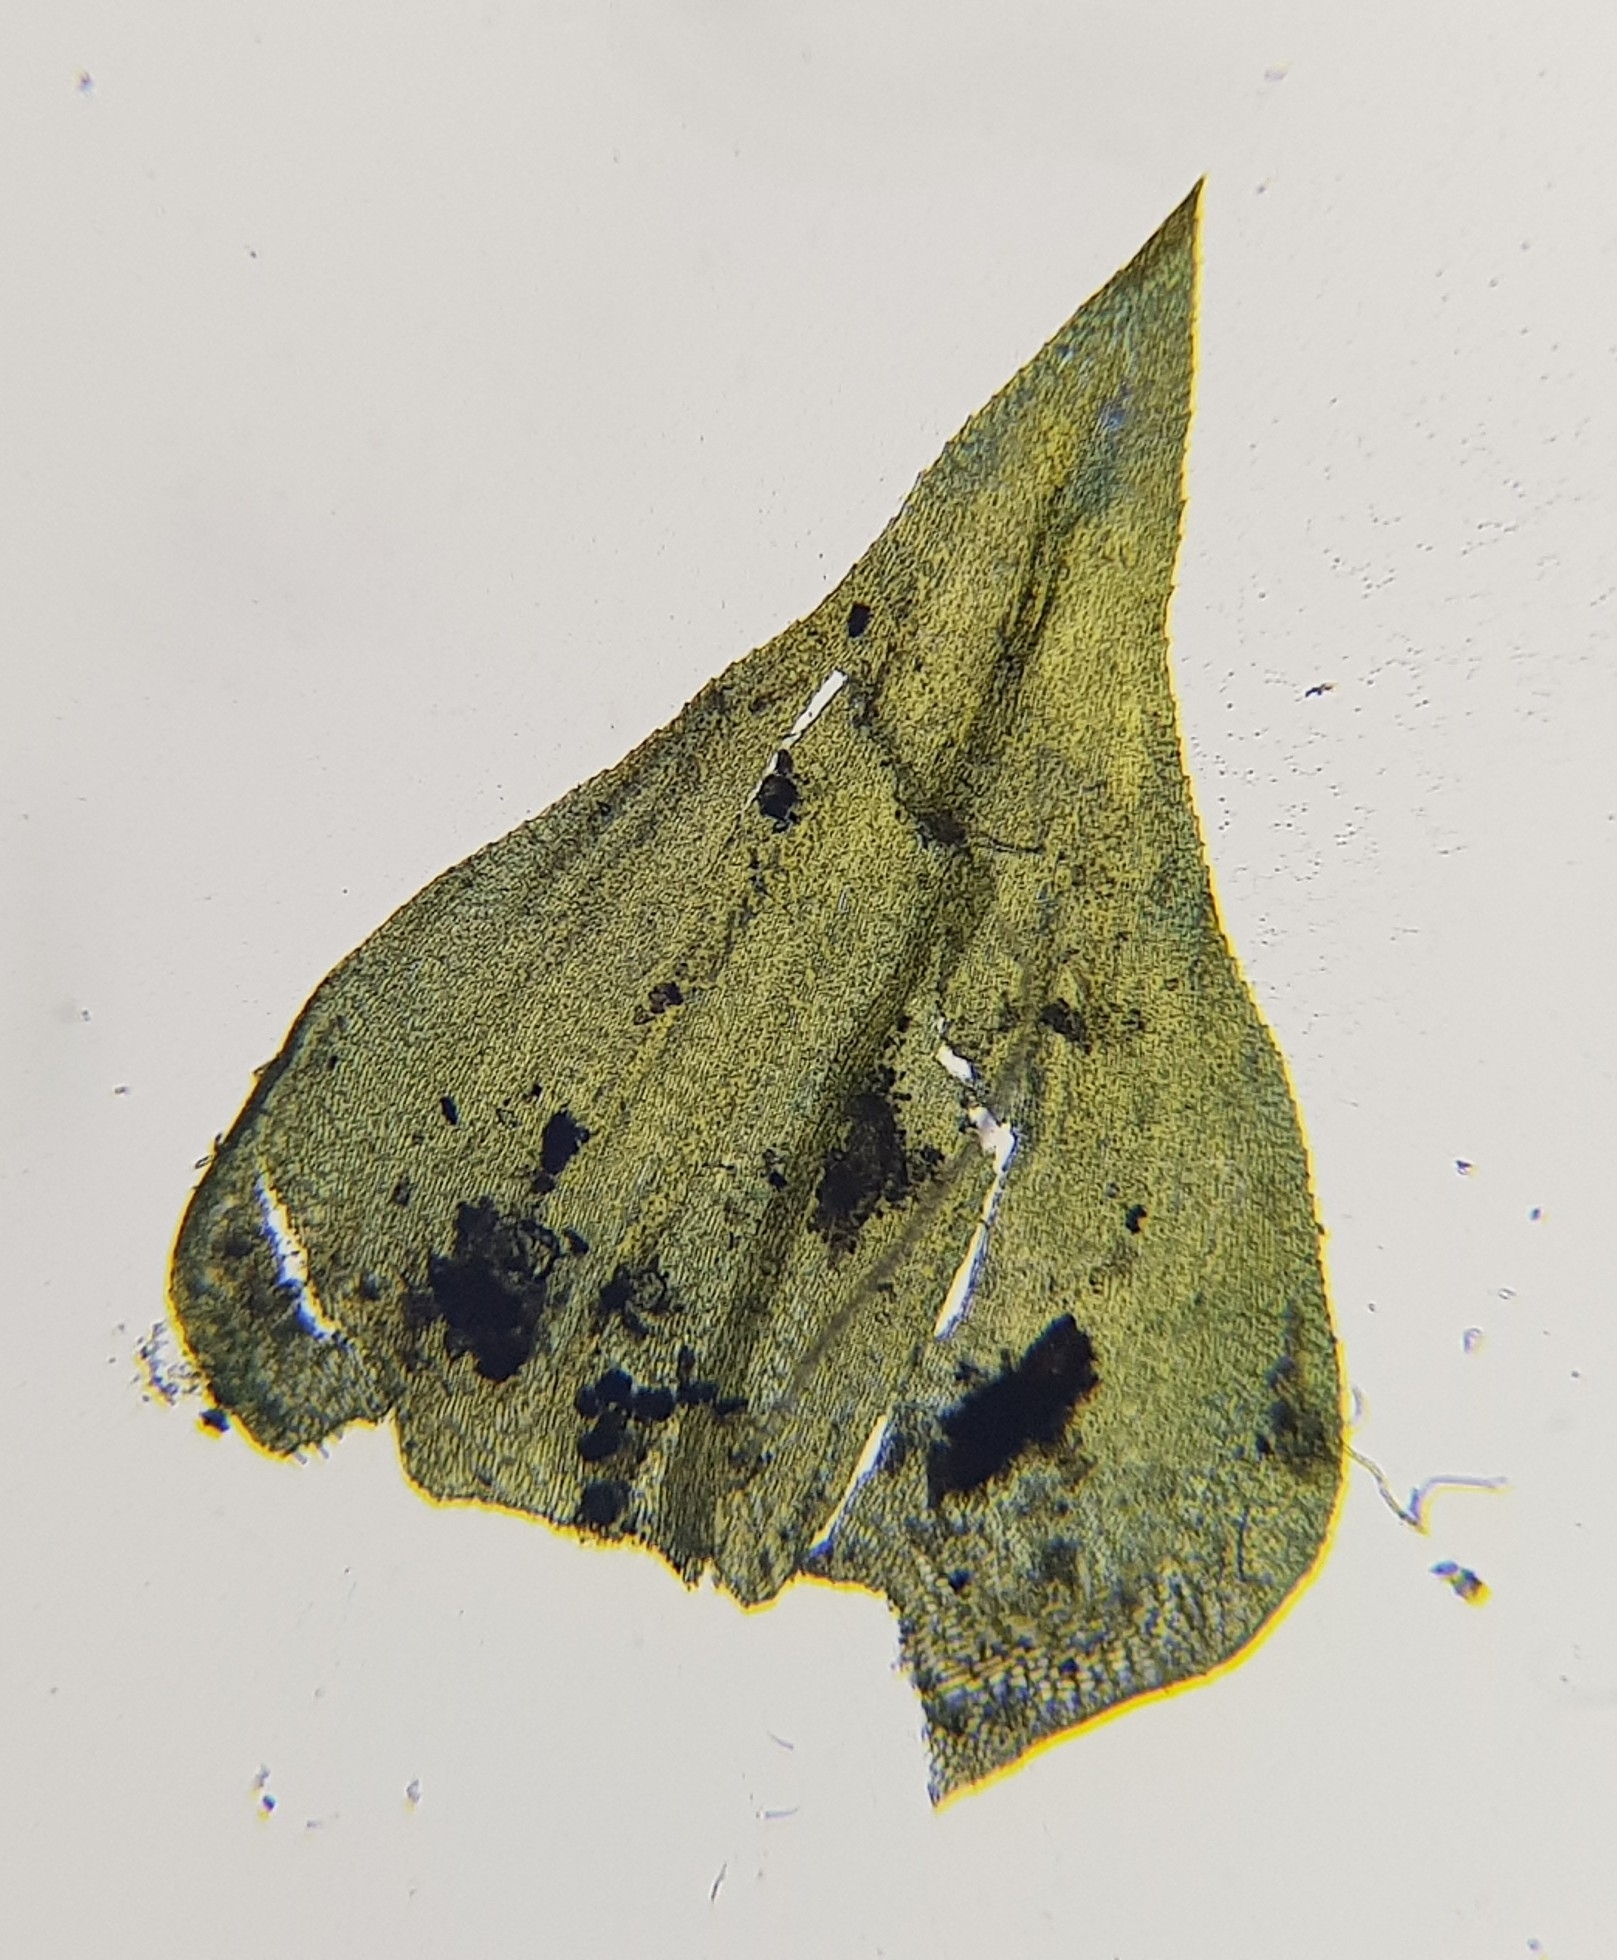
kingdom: Plantae
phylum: Bryophyta
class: Bryopsida
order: Hypnales
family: Brachytheciaceae
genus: Eurhynchium
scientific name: Eurhynchium striatum
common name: Common striated feather-moss
